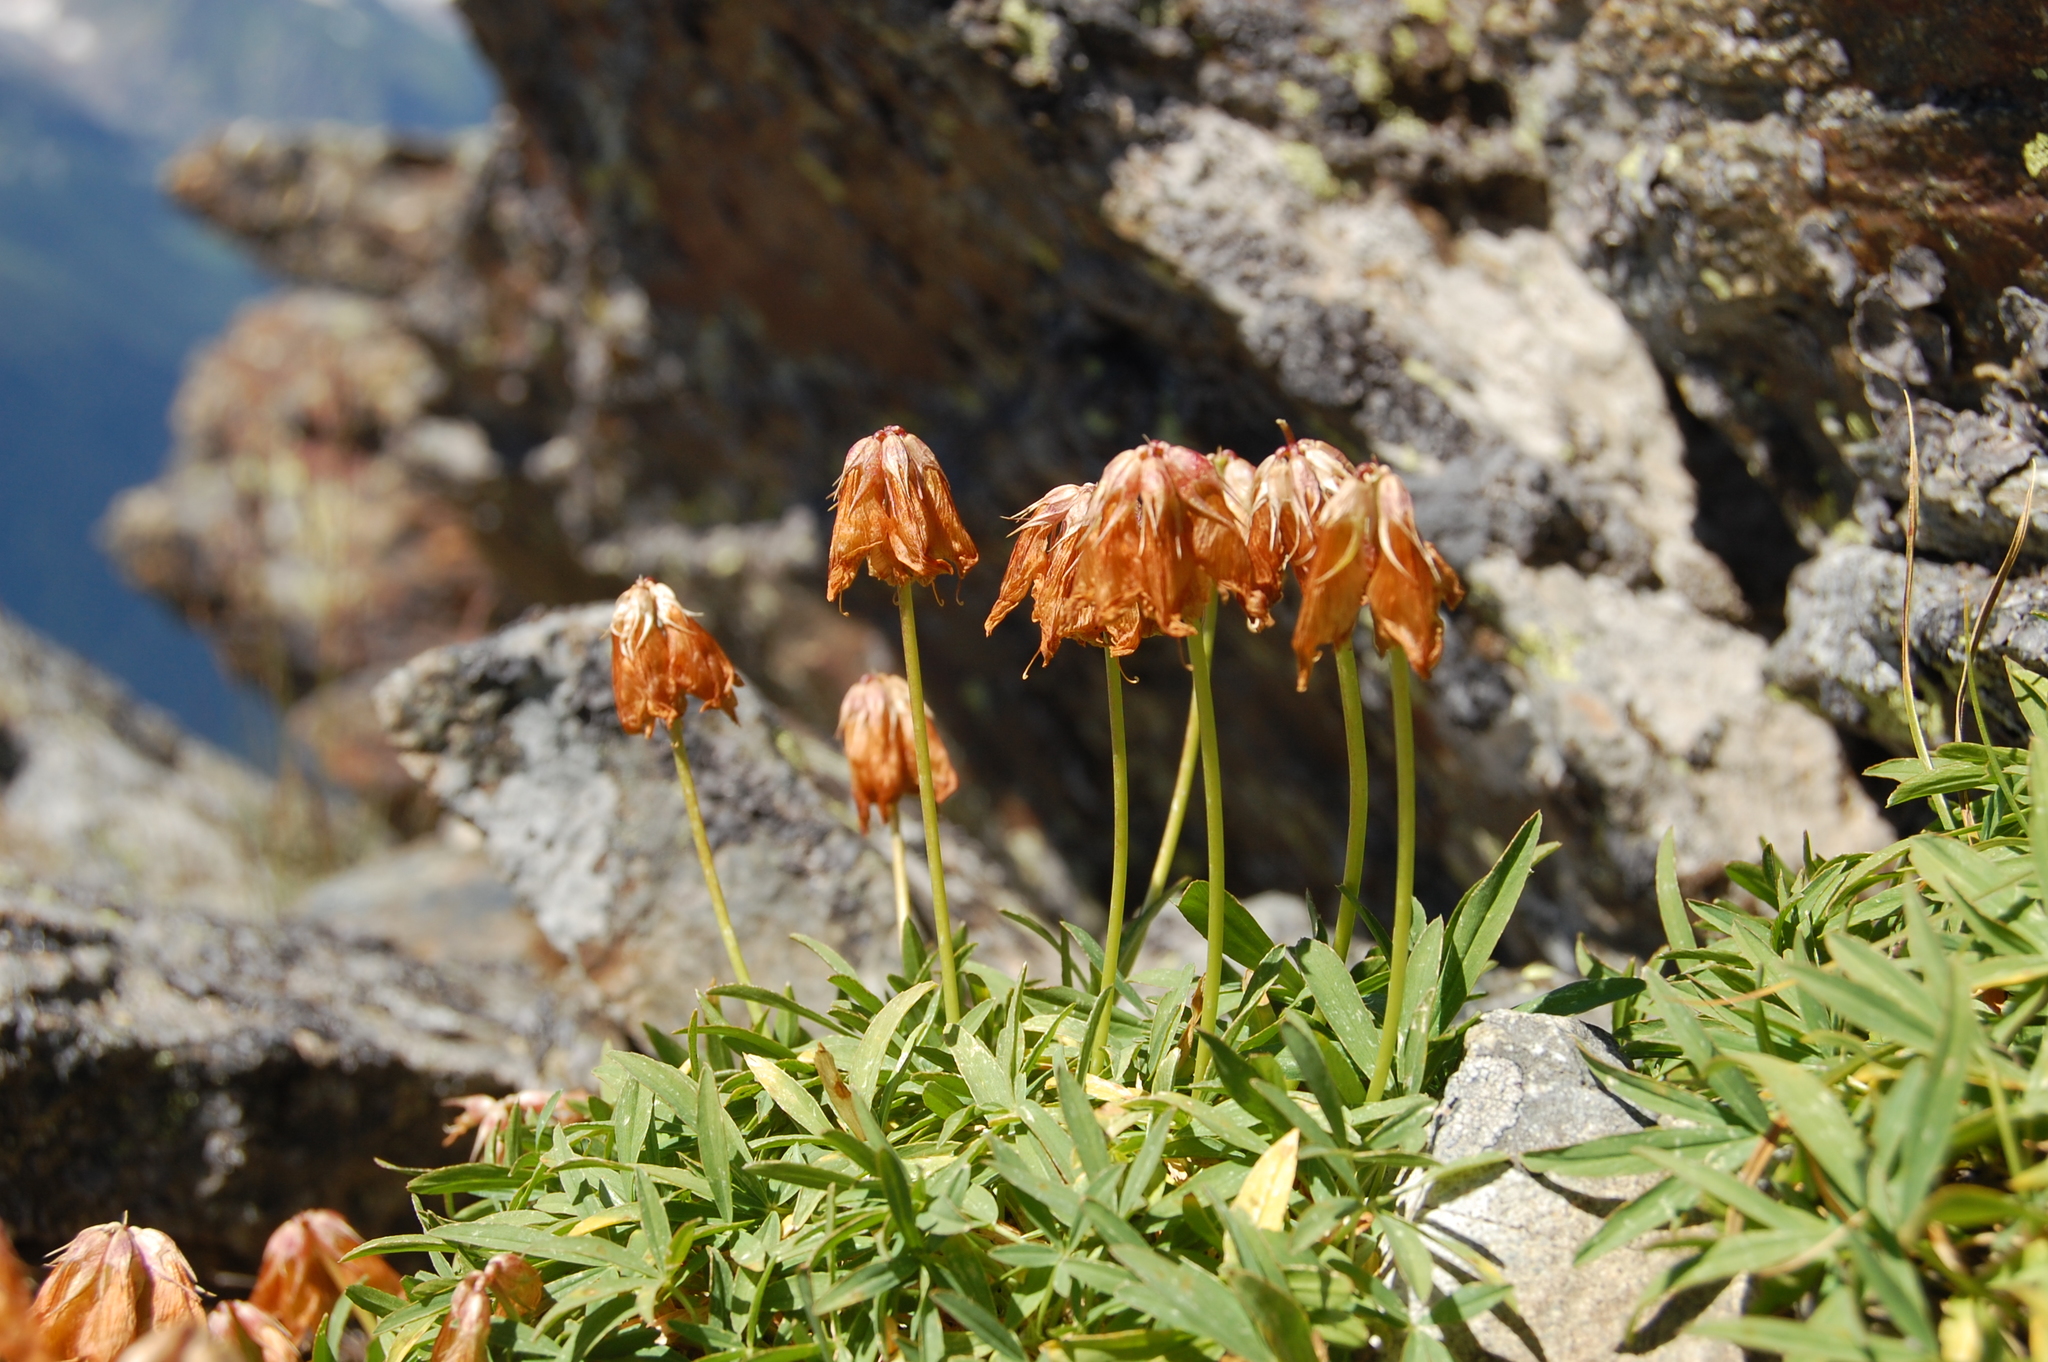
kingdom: Plantae
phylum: Tracheophyta
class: Magnoliopsida
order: Fabales
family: Fabaceae
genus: Trifolium
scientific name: Trifolium polyphyllum
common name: Many-leaf clover
